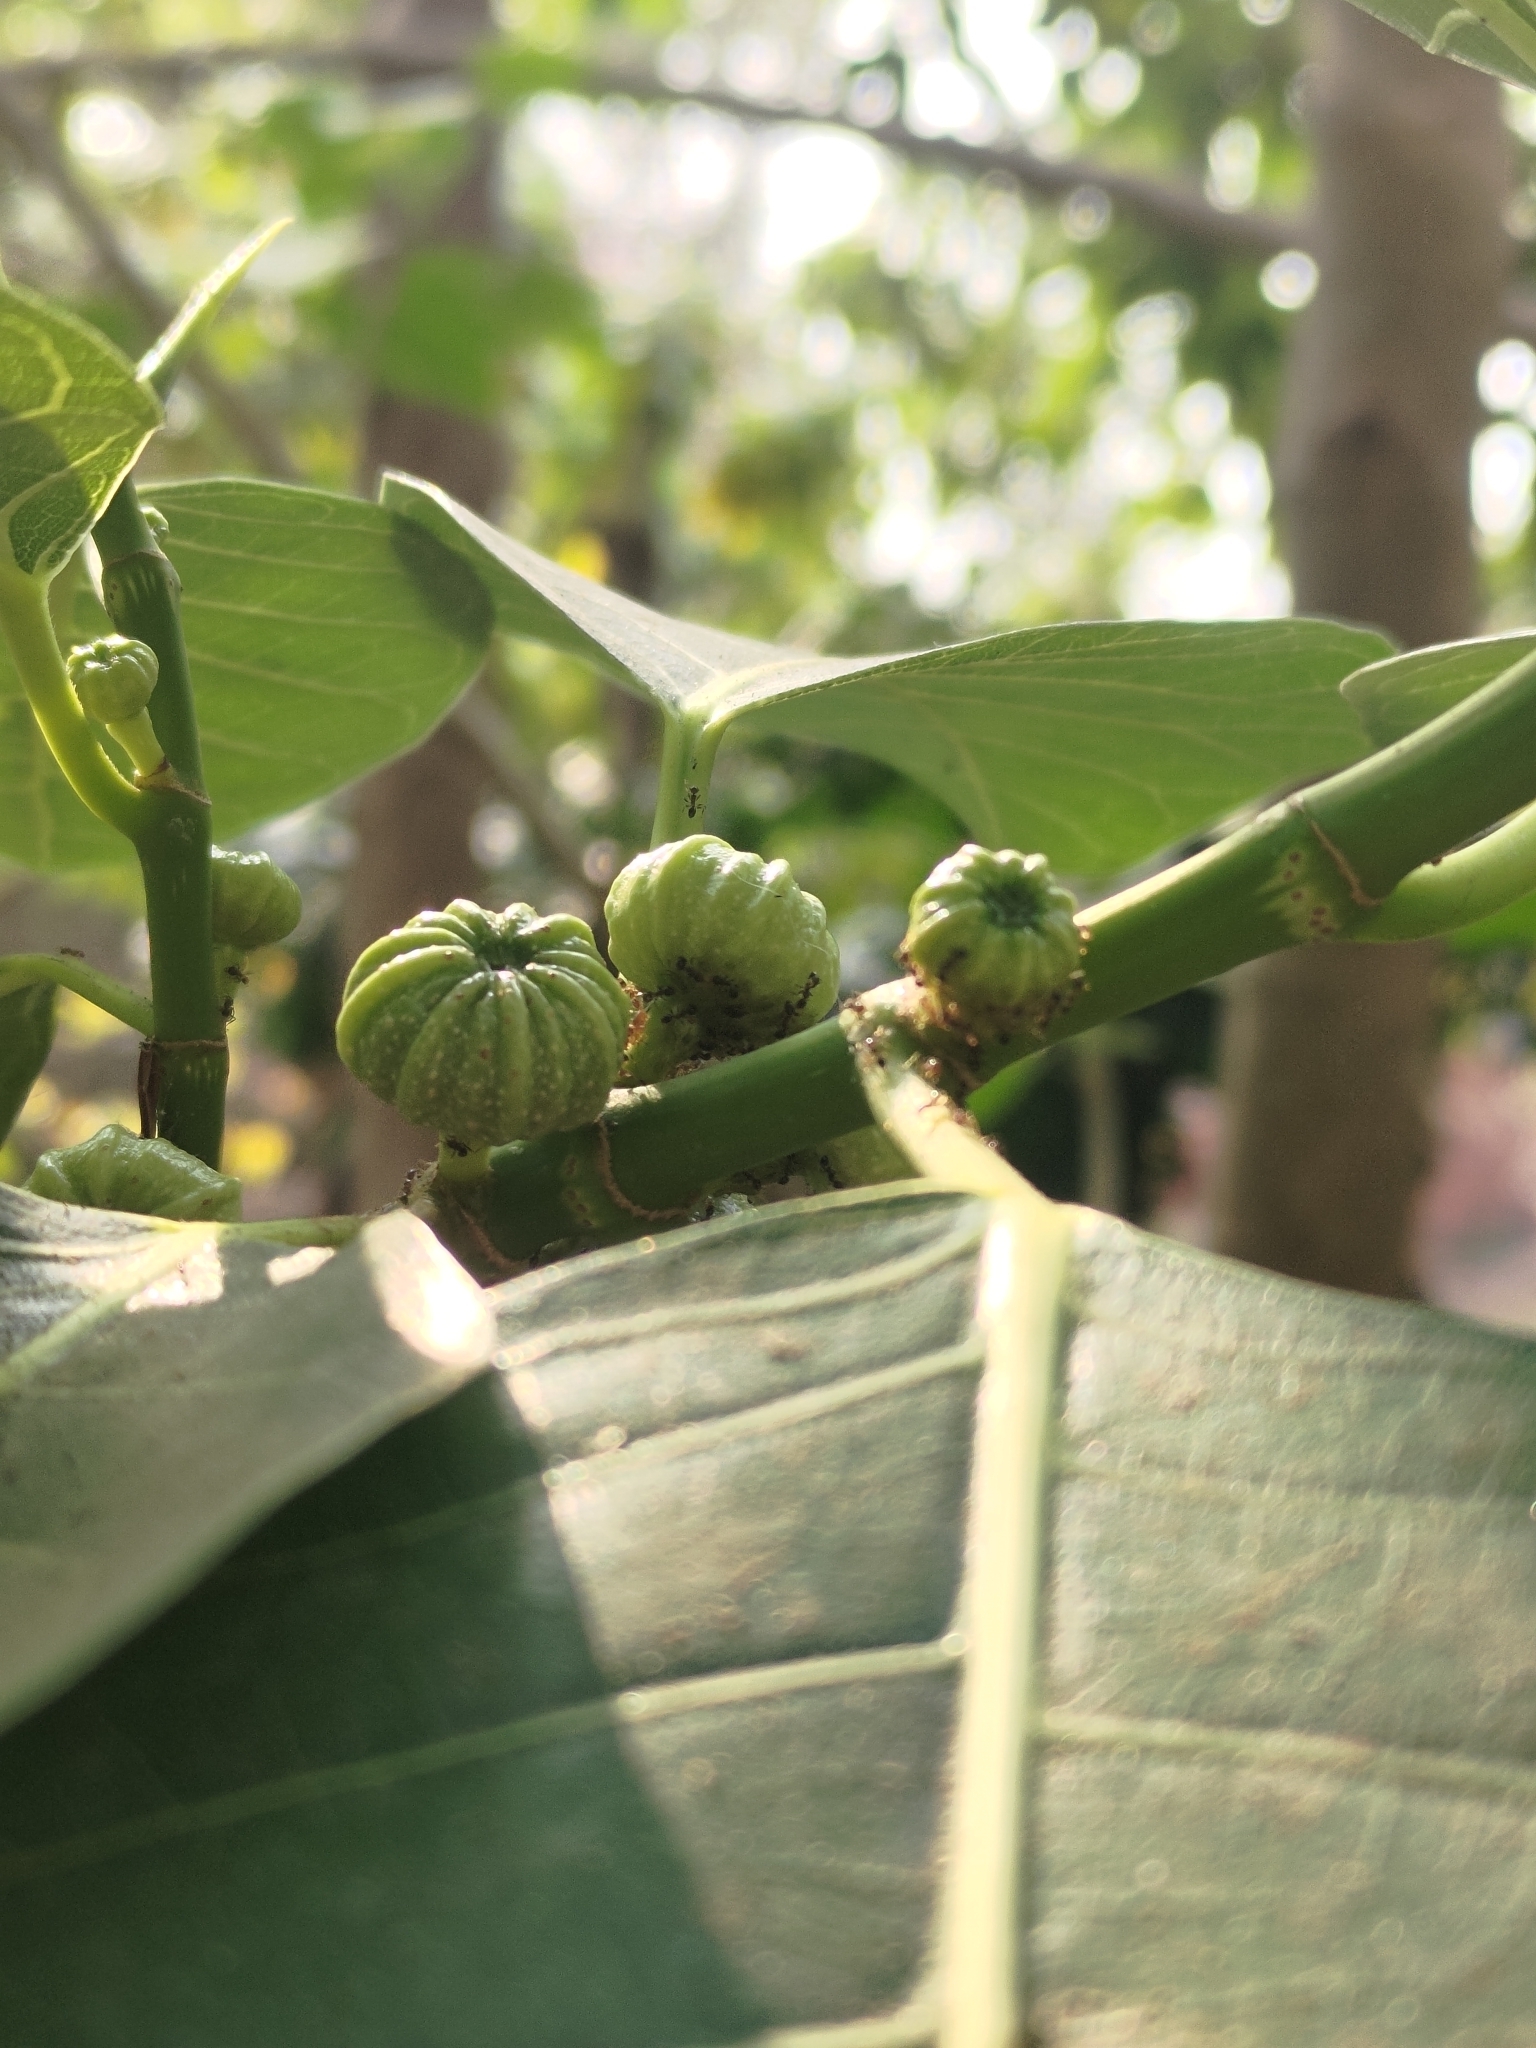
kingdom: Plantae
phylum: Tracheophyta
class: Magnoliopsida
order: Rosales
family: Moraceae
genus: Ficus
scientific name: Ficus septica
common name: Septic fig
